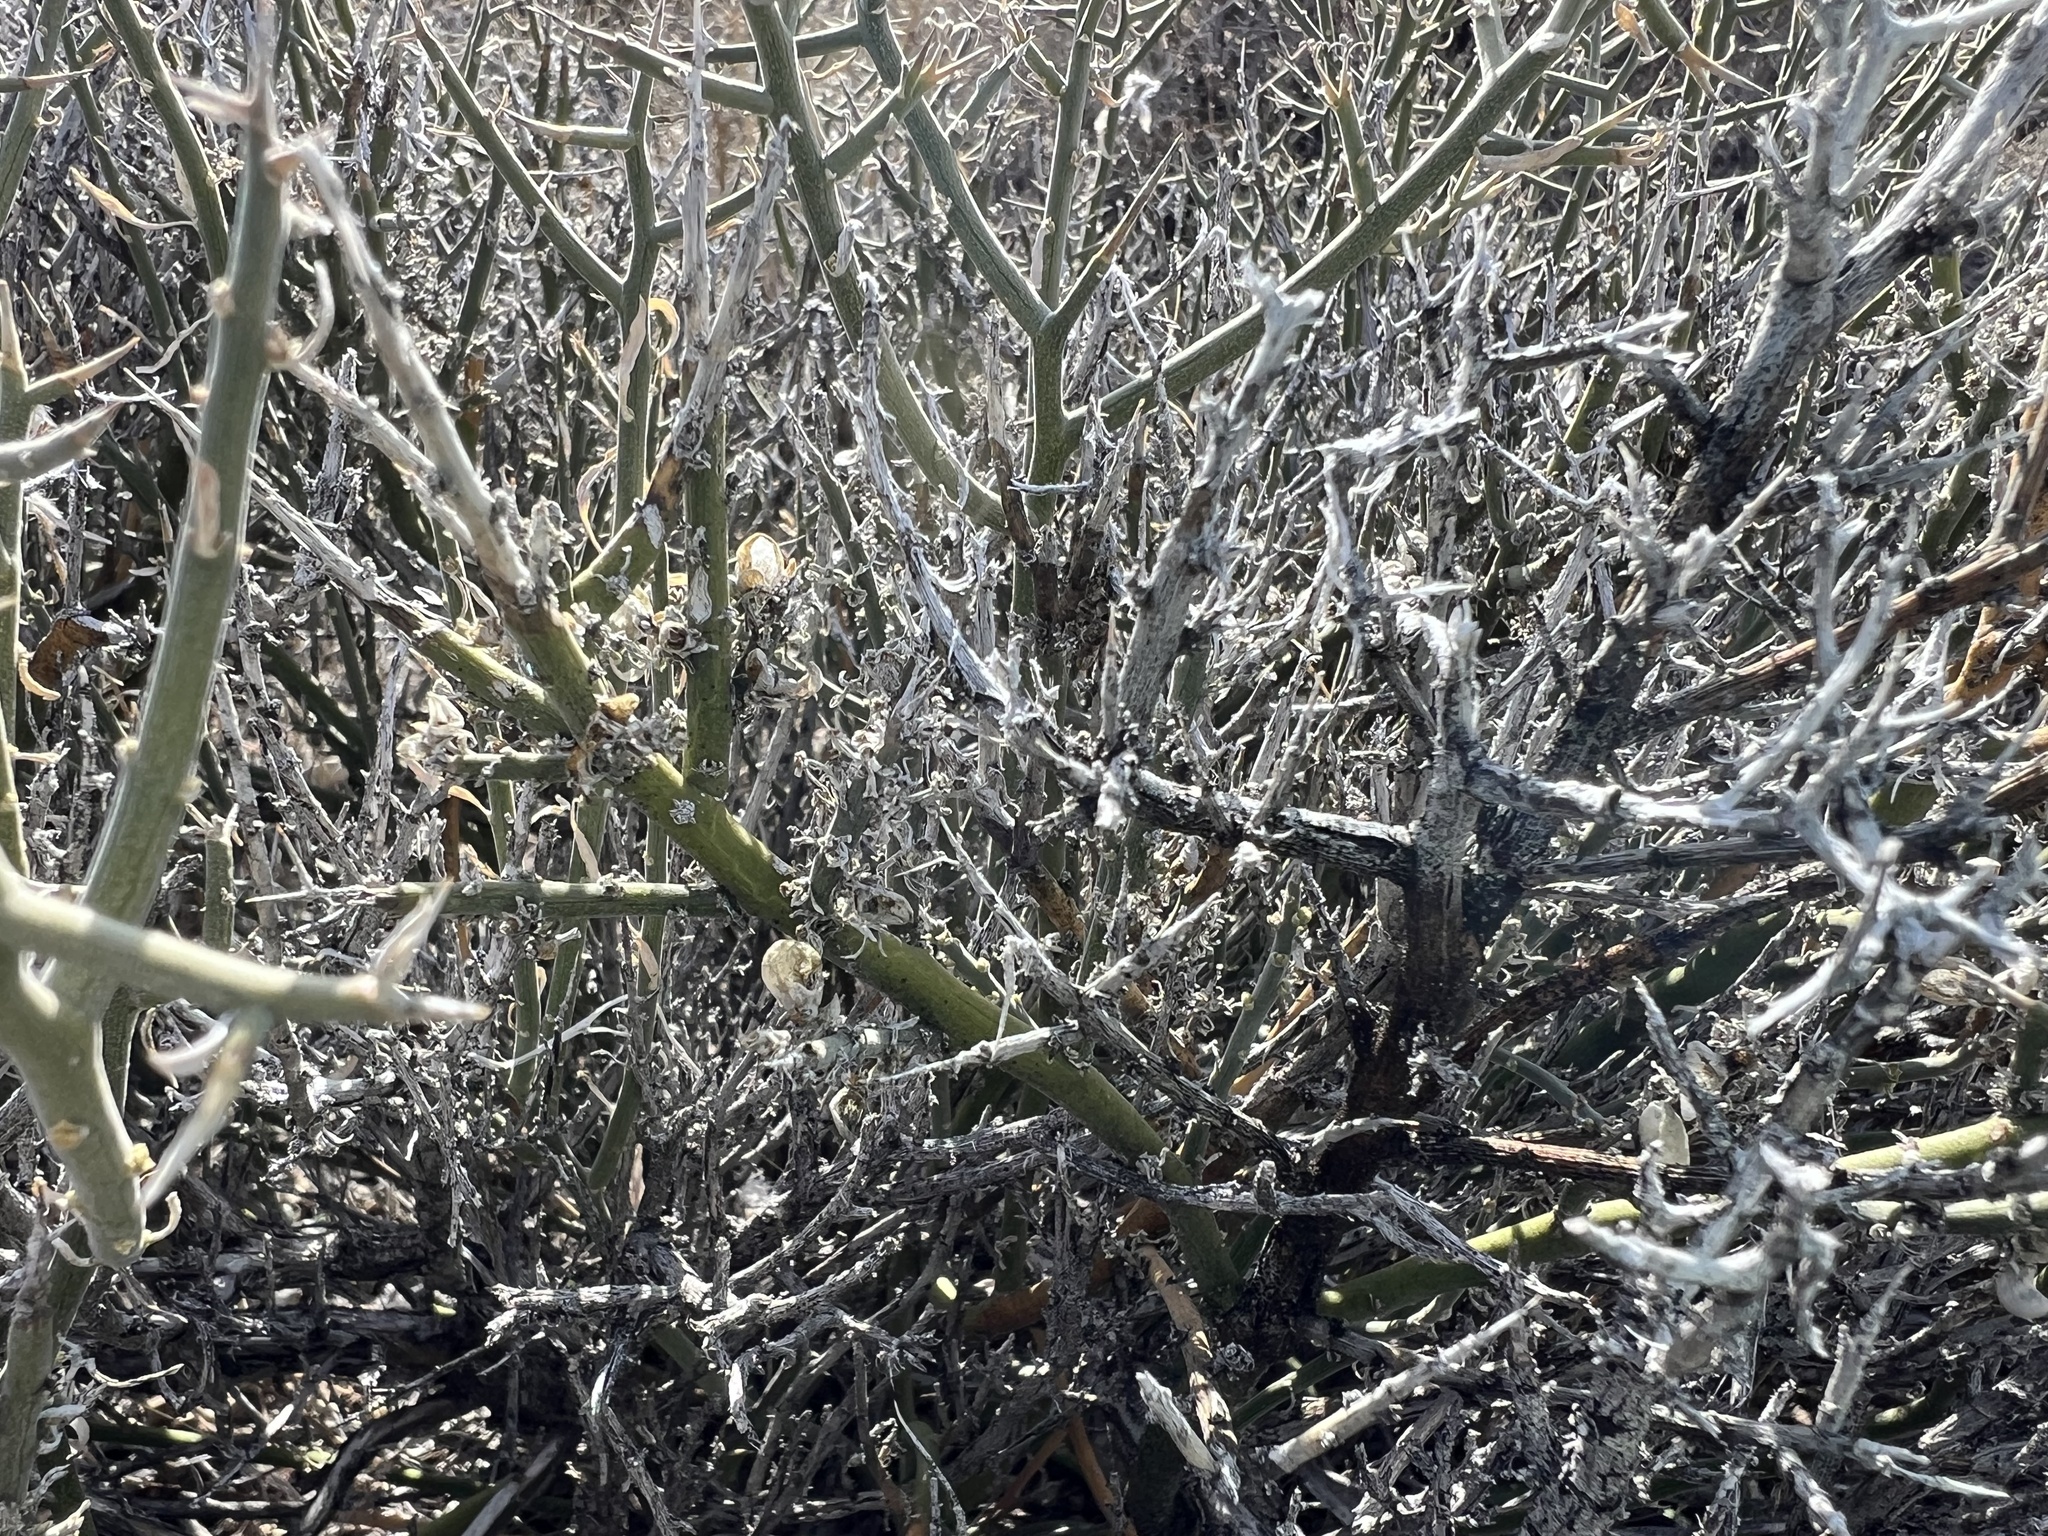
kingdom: Plantae
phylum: Tracheophyta
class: Magnoliopsida
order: Lamiales
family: Oleaceae
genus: Menodora
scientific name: Menodora spinescens
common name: Spiny menodora
